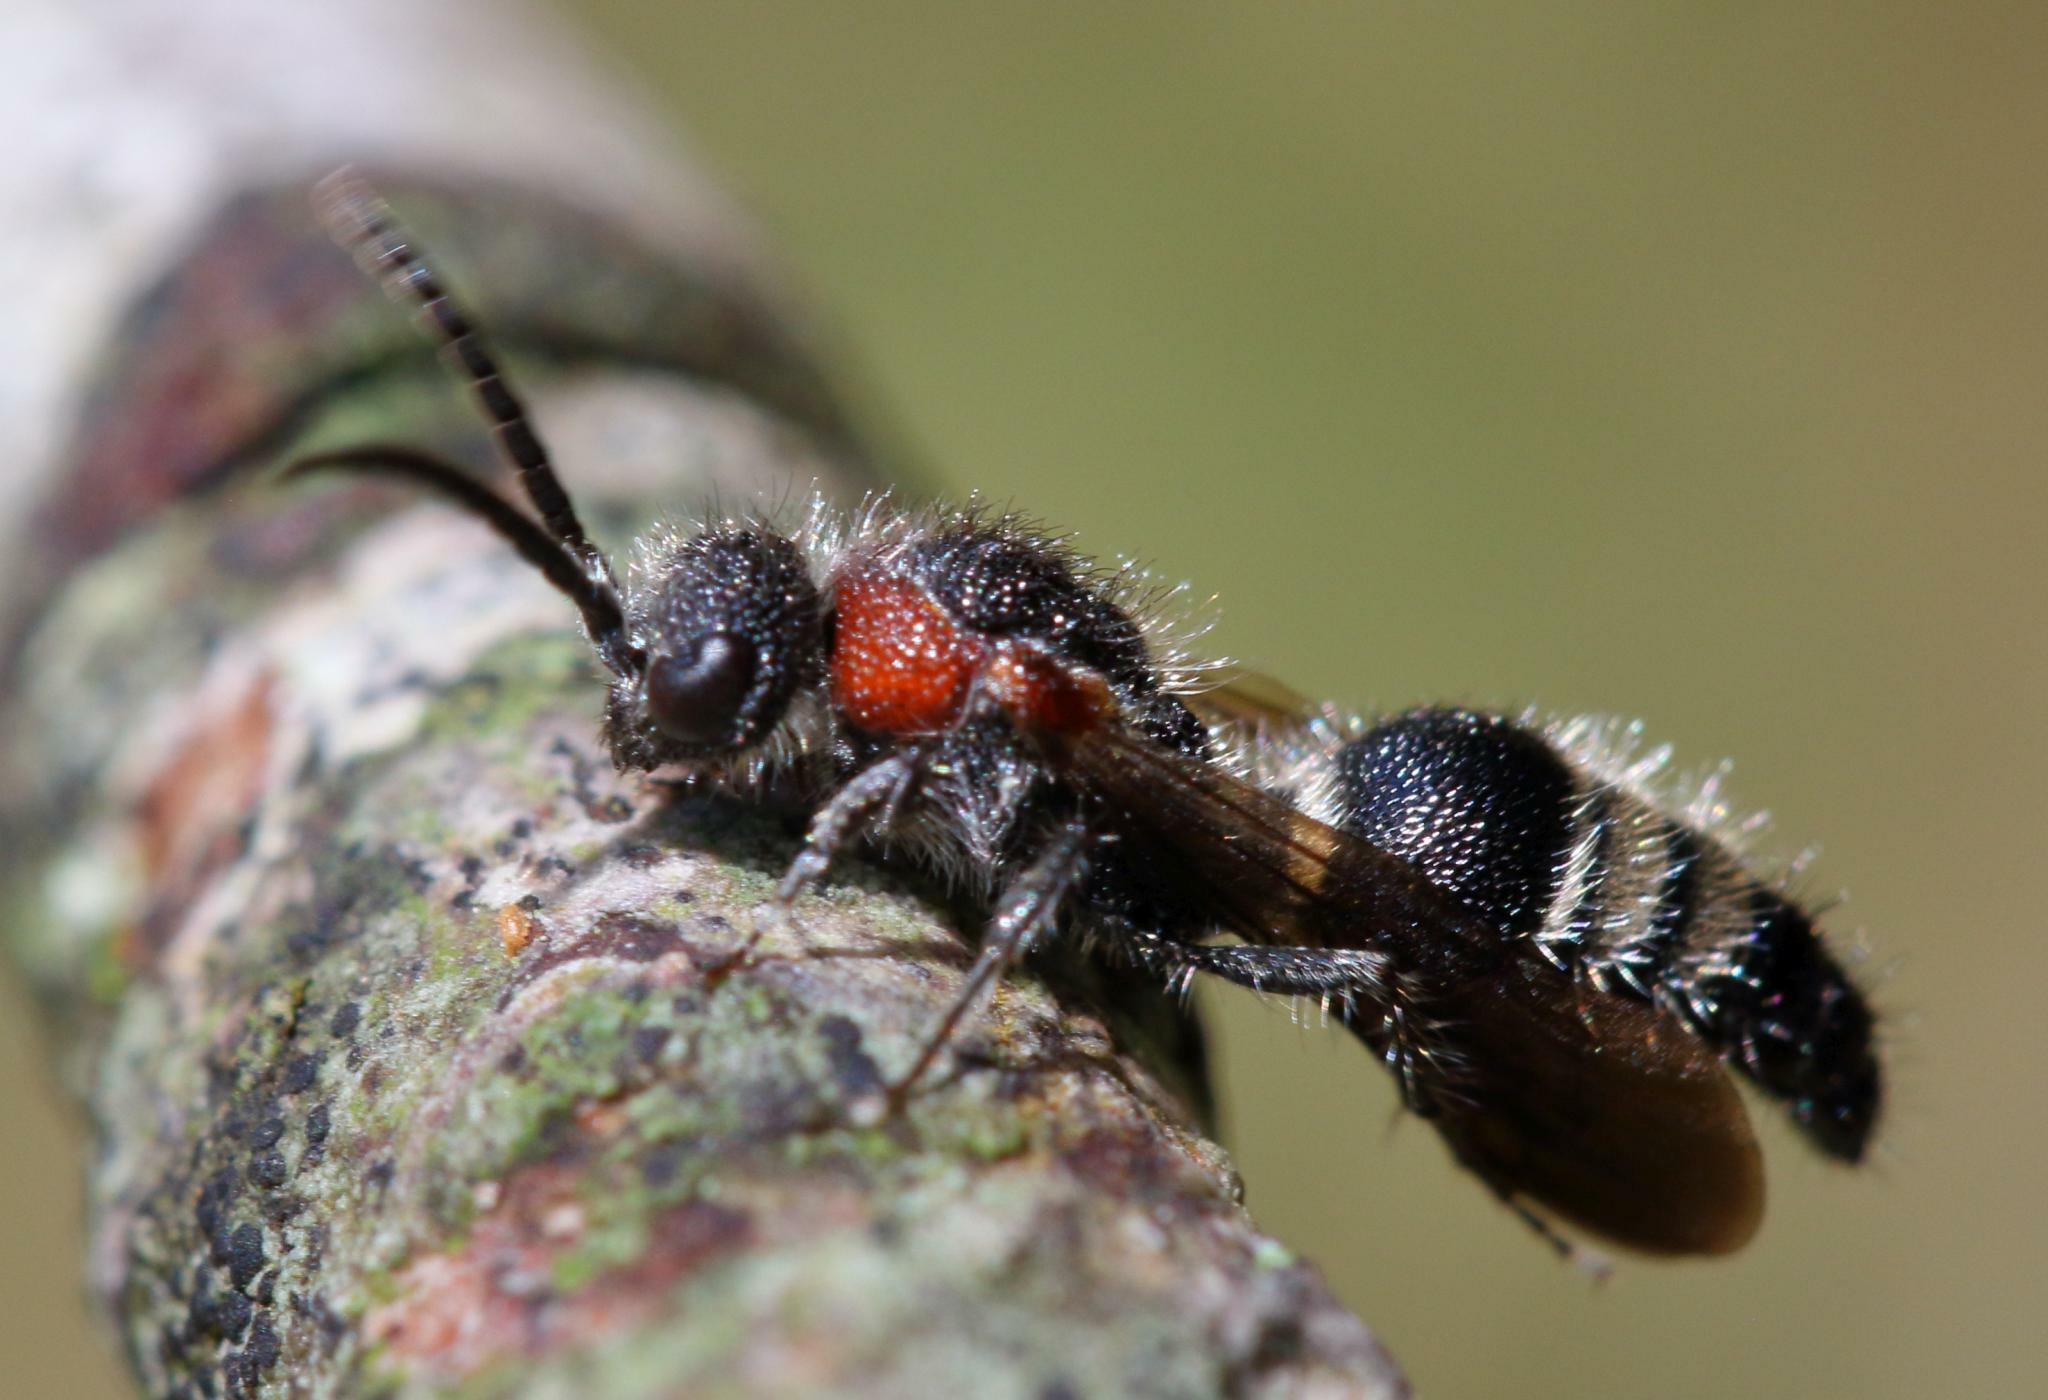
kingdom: Animalia
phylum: Arthropoda
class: Insecta
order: Hymenoptera
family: Mutillidae
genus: Antennotilla
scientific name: Antennotilla
